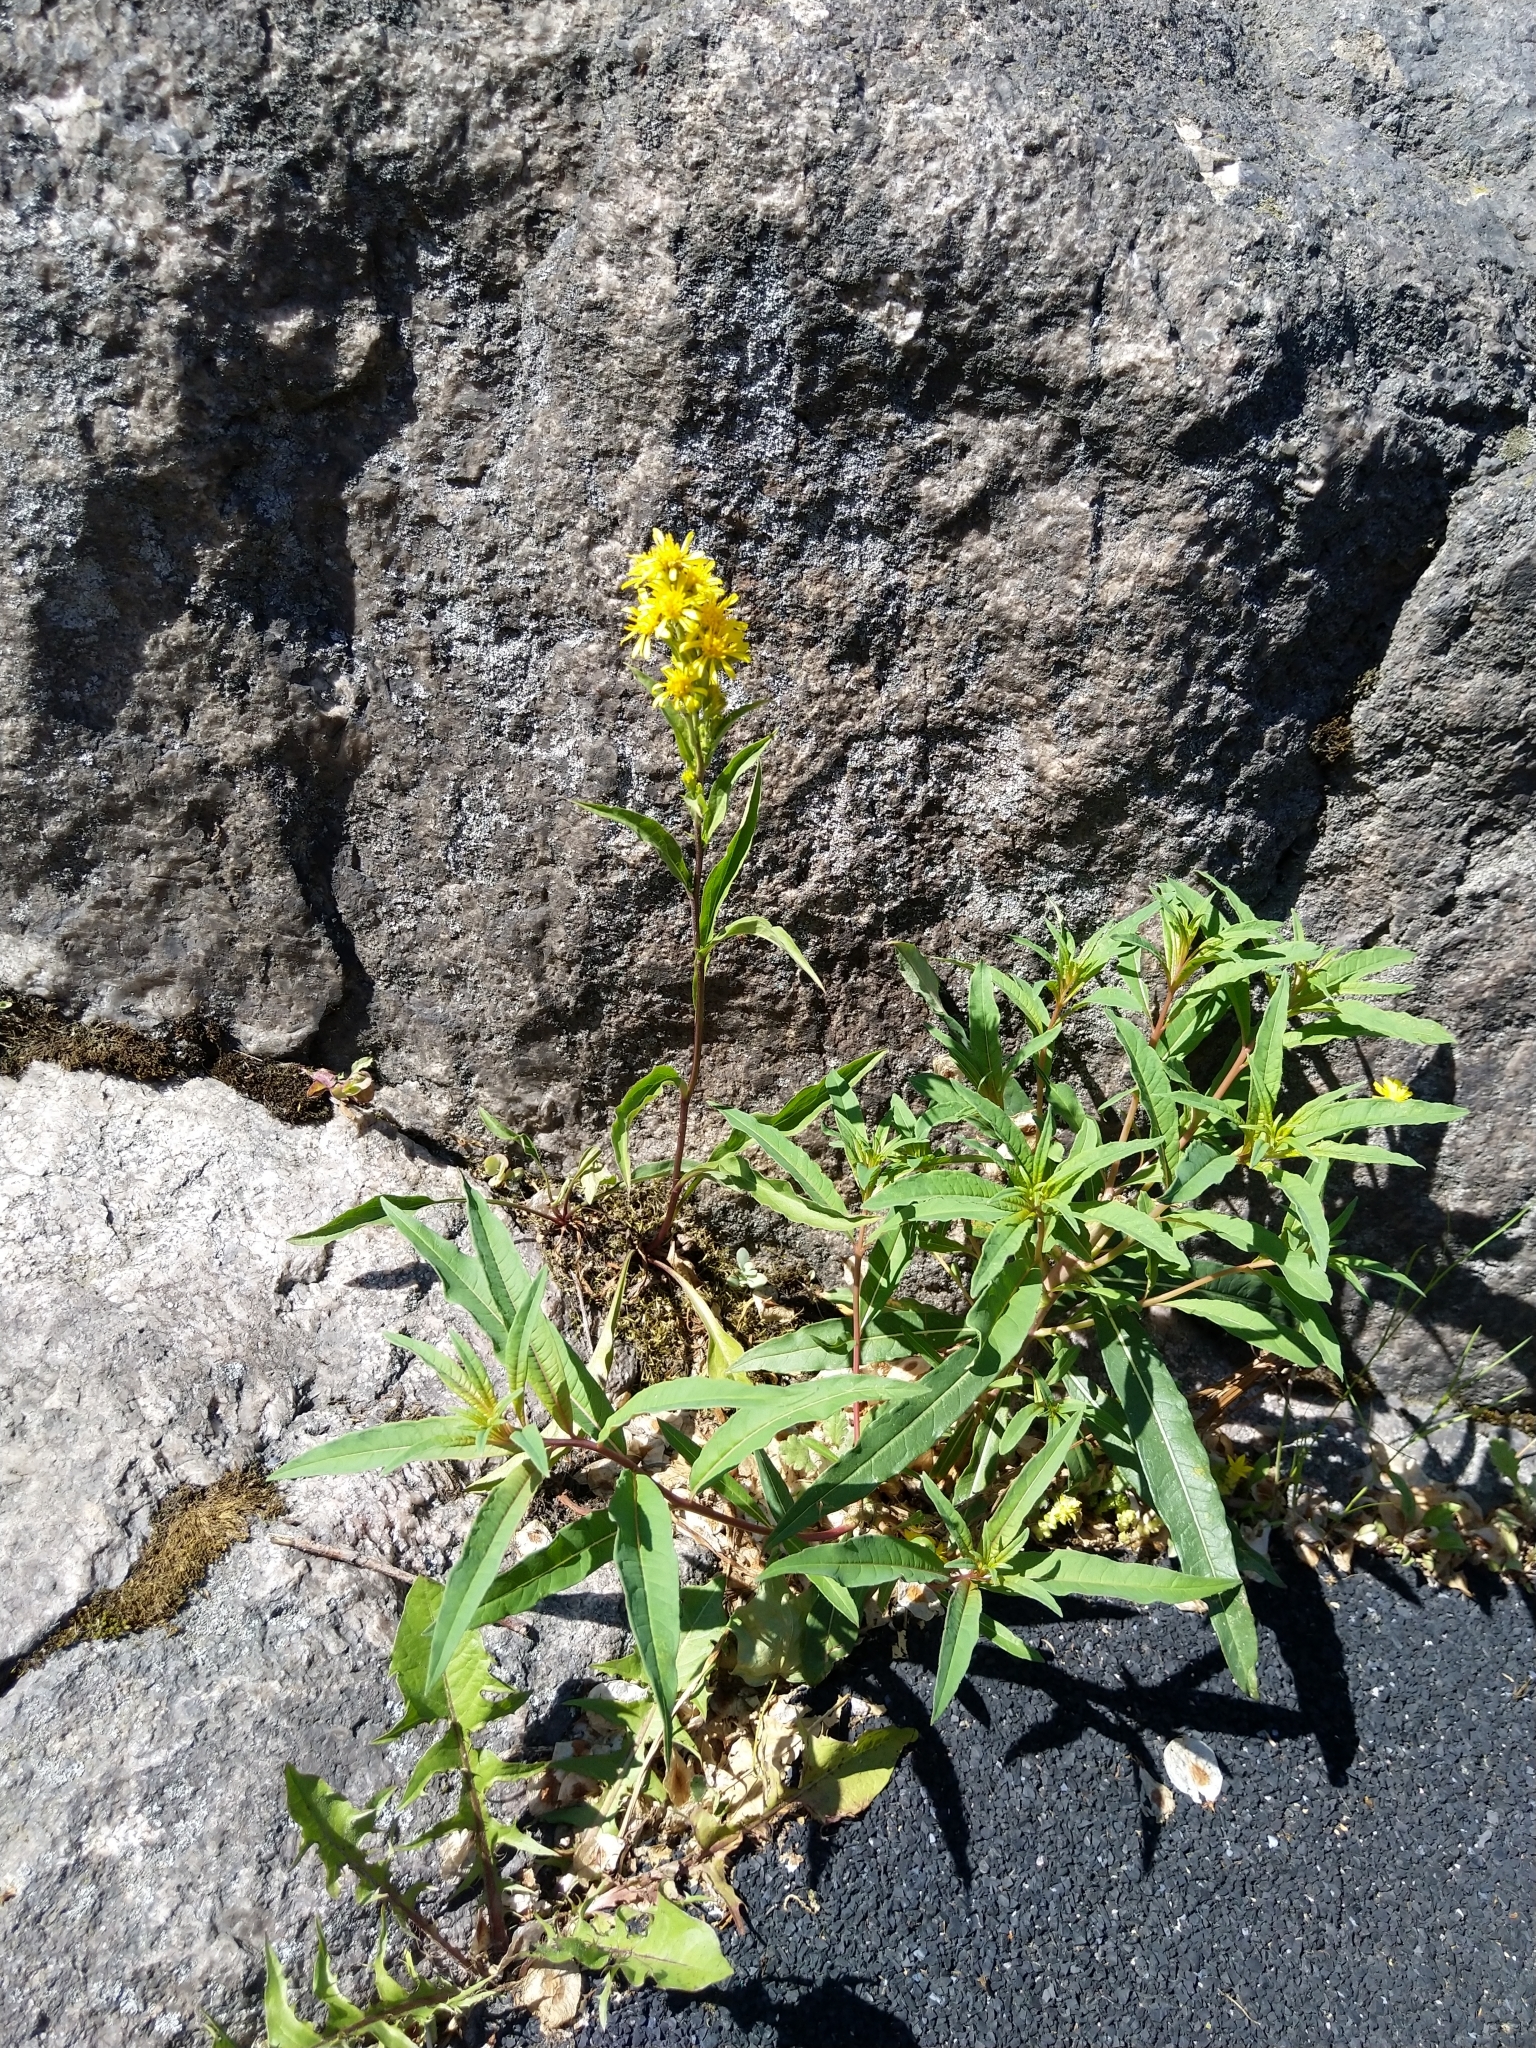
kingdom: Plantae
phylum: Tracheophyta
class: Magnoliopsida
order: Asterales
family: Asteraceae
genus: Solidago
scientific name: Solidago virgaurea
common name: Goldenrod
